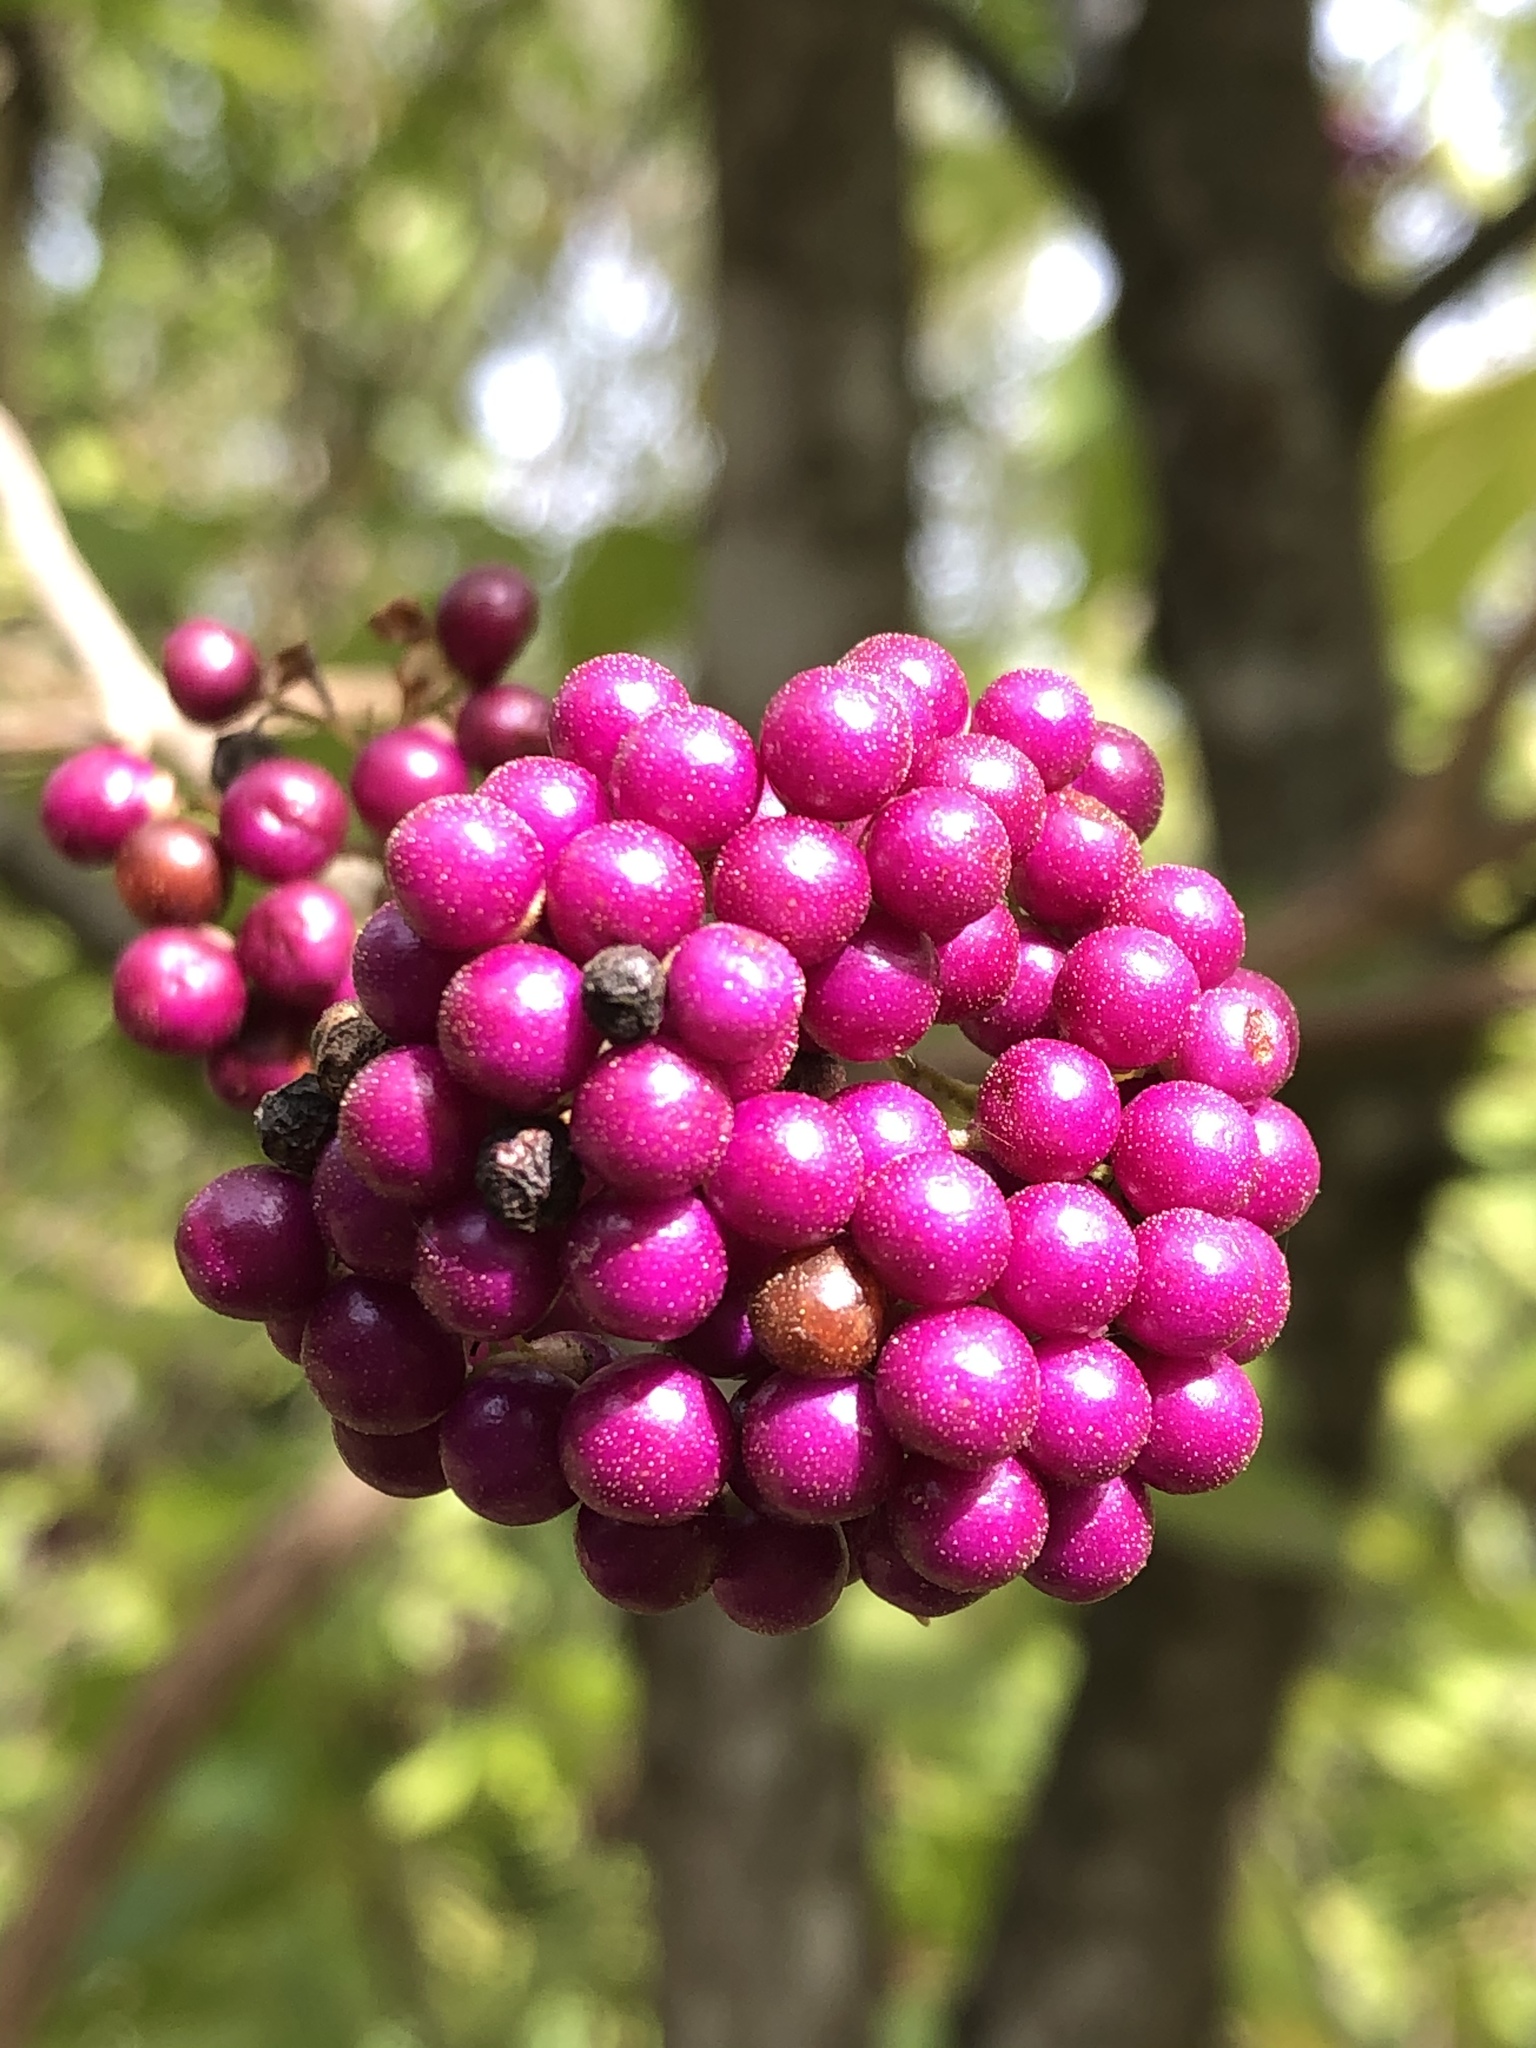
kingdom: Plantae
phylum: Tracheophyta
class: Magnoliopsida
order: Lamiales
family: Lamiaceae
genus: Callicarpa
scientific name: Callicarpa americana
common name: American beautyberry
